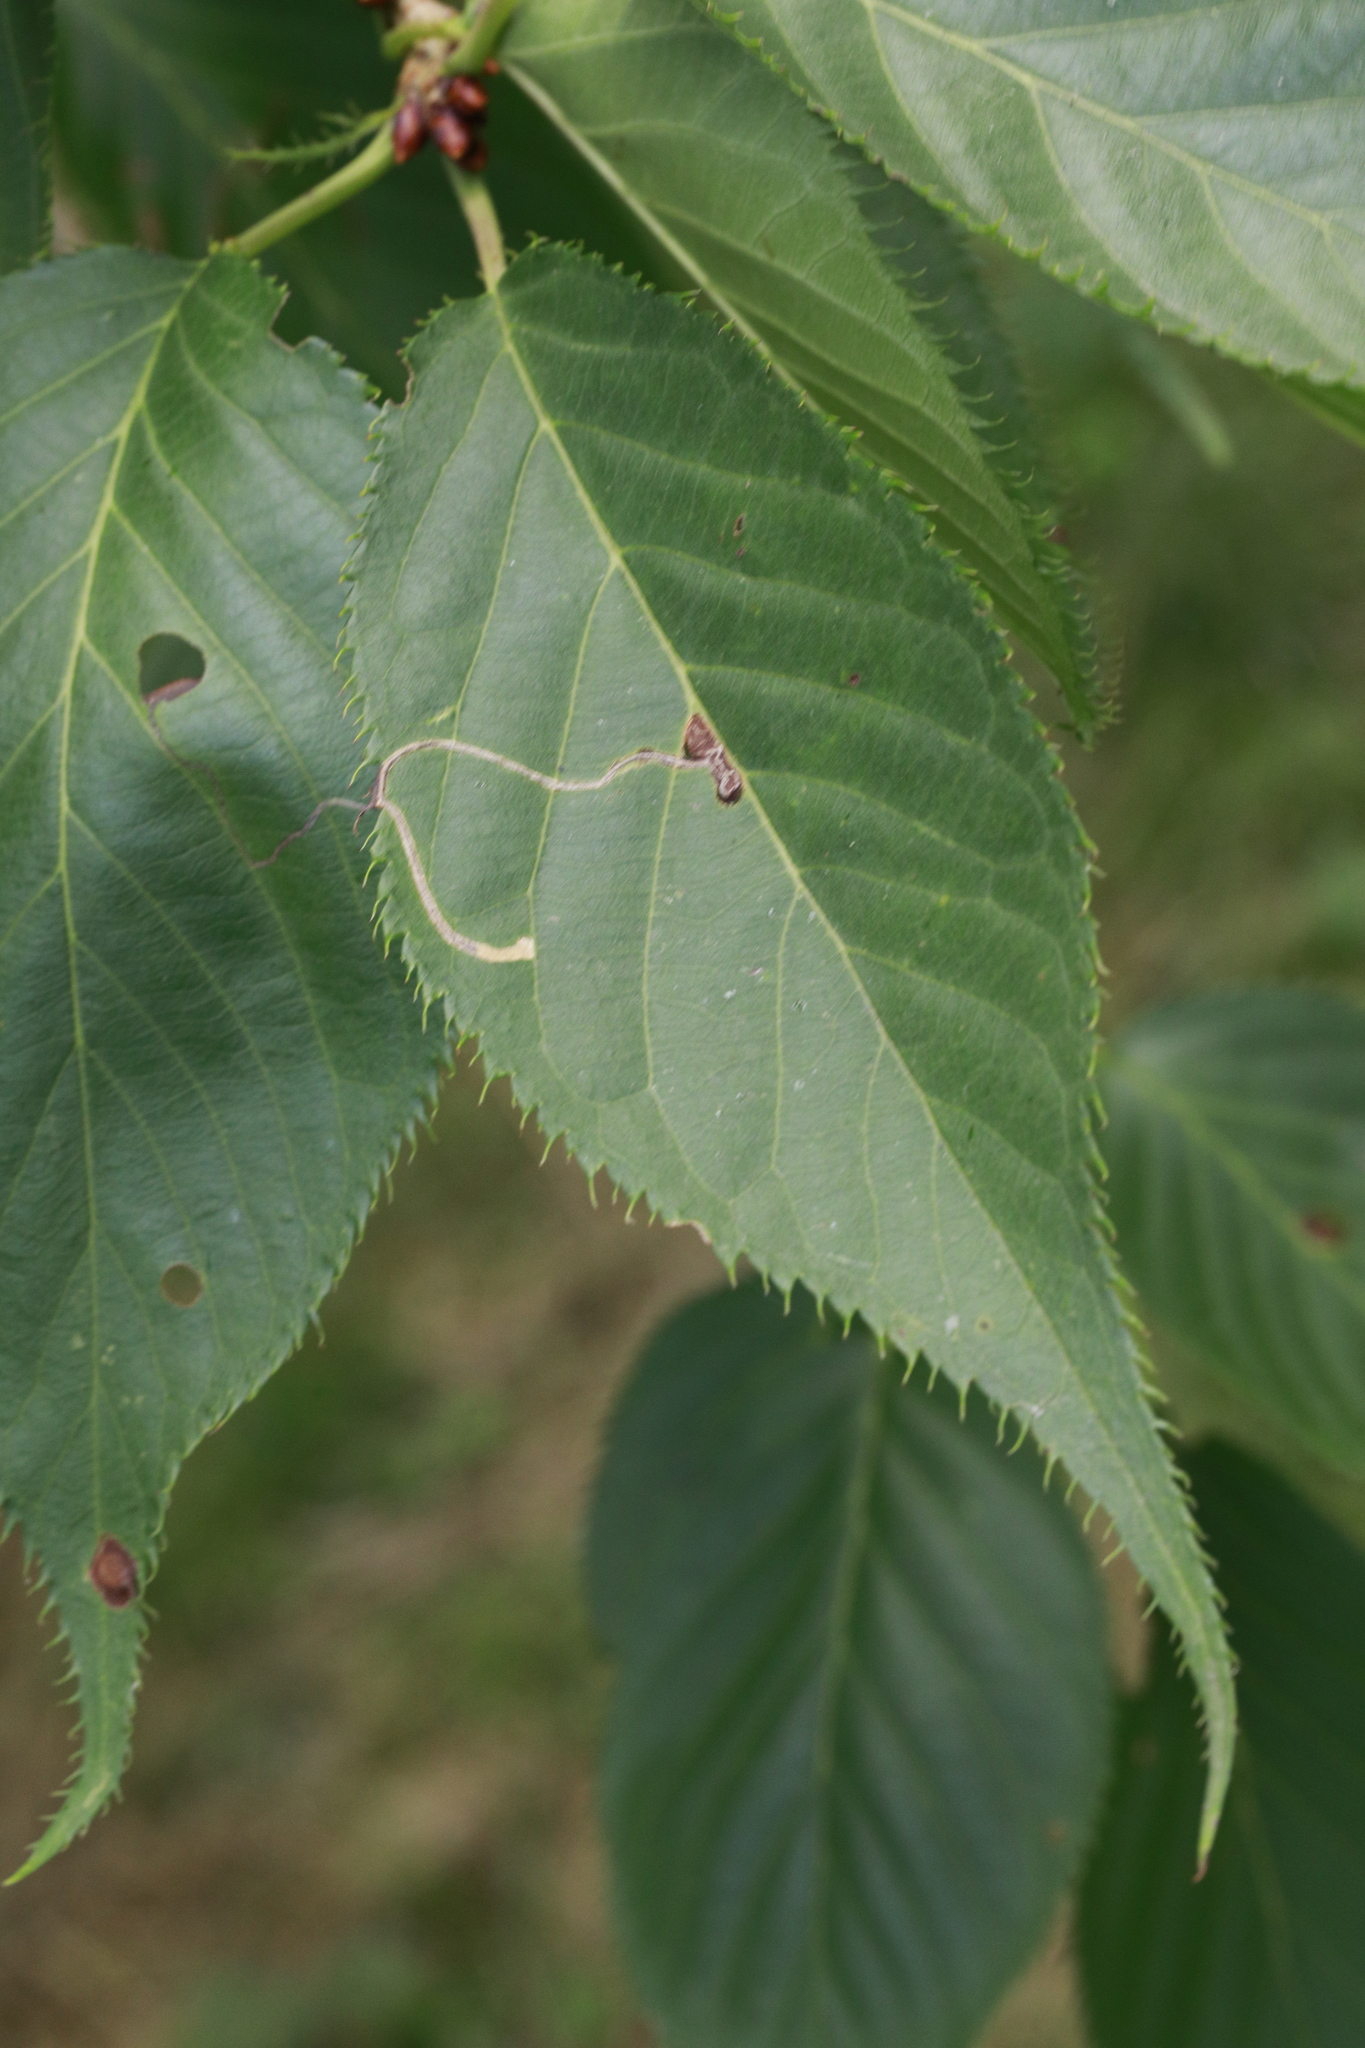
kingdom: Animalia
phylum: Arthropoda
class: Insecta
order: Lepidoptera
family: Lyonetiidae
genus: Lyonetia
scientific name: Lyonetia clerkella
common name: Apple leaf miner
